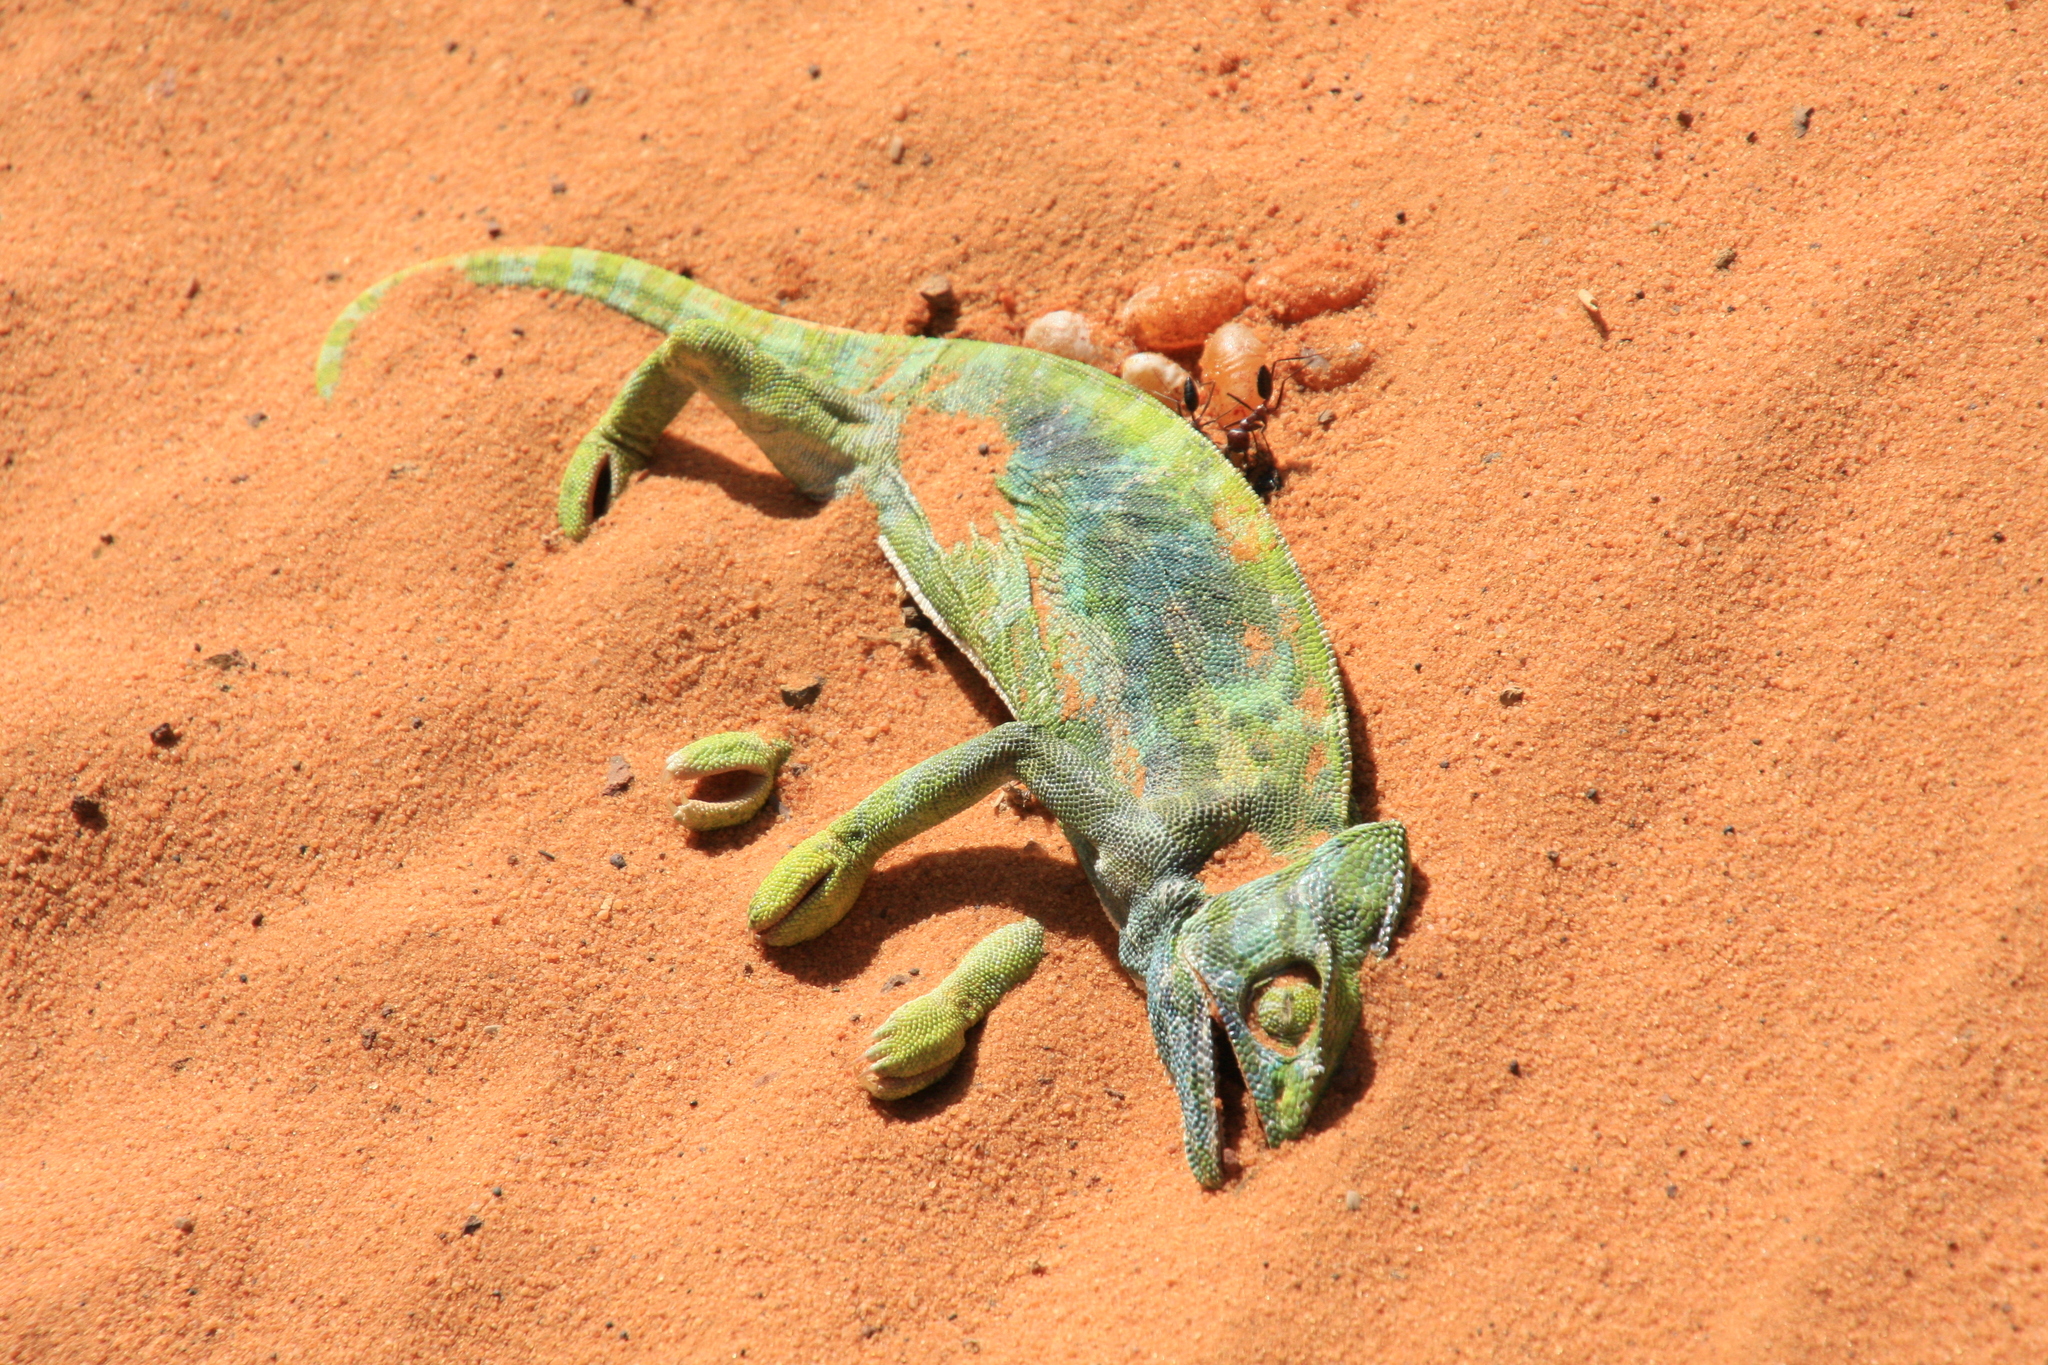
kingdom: Animalia
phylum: Chordata
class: Squamata
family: Chamaeleonidae
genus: Chamaeleo
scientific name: Chamaeleo africanus
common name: African chameleon
